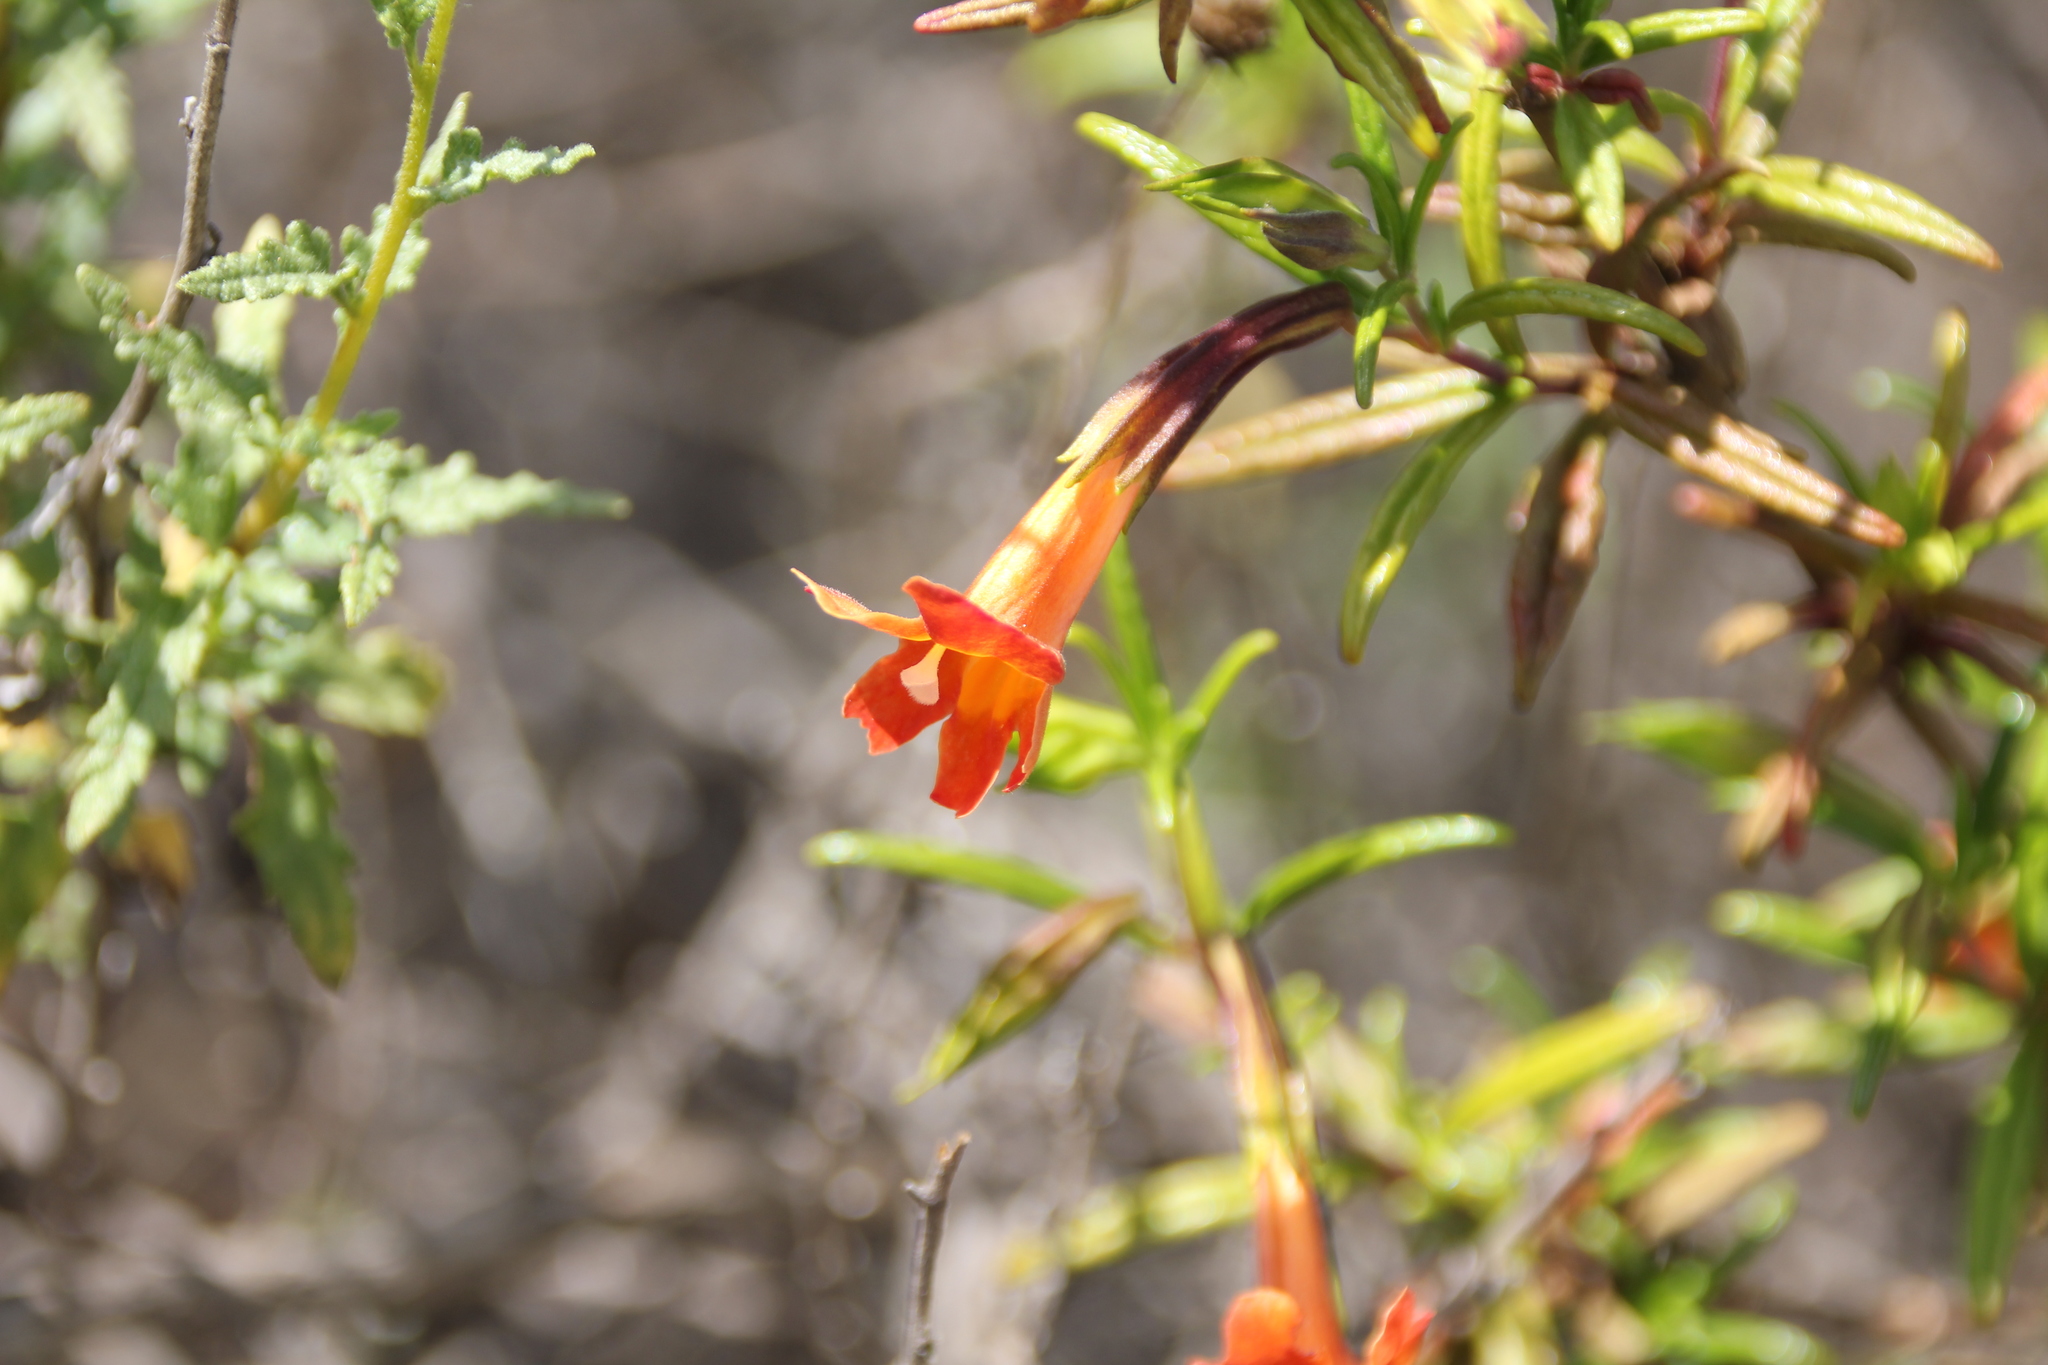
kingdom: Plantae
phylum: Tracheophyta
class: Magnoliopsida
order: Lamiales
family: Phrymaceae
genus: Diplacus
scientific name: Diplacus puniceus
